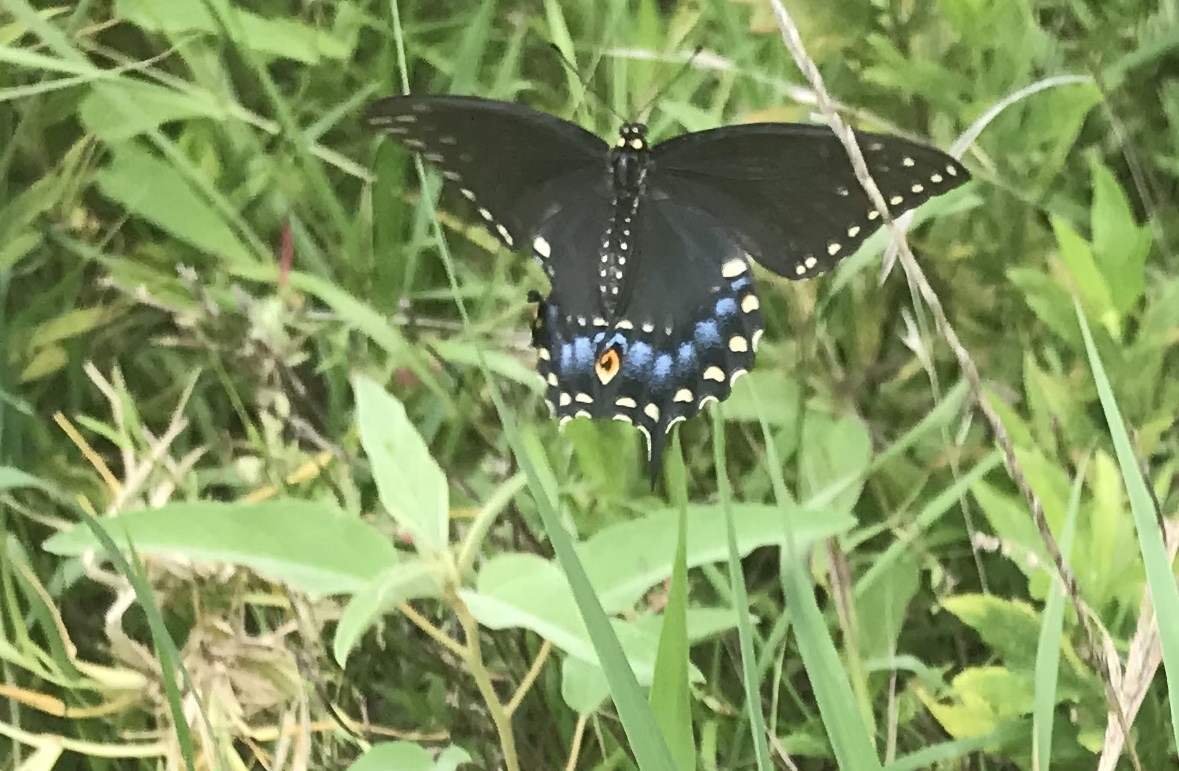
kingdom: Animalia
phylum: Arthropoda
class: Insecta
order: Lepidoptera
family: Papilionidae
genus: Papilio
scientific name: Papilio polyxenes
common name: Black swallowtail
